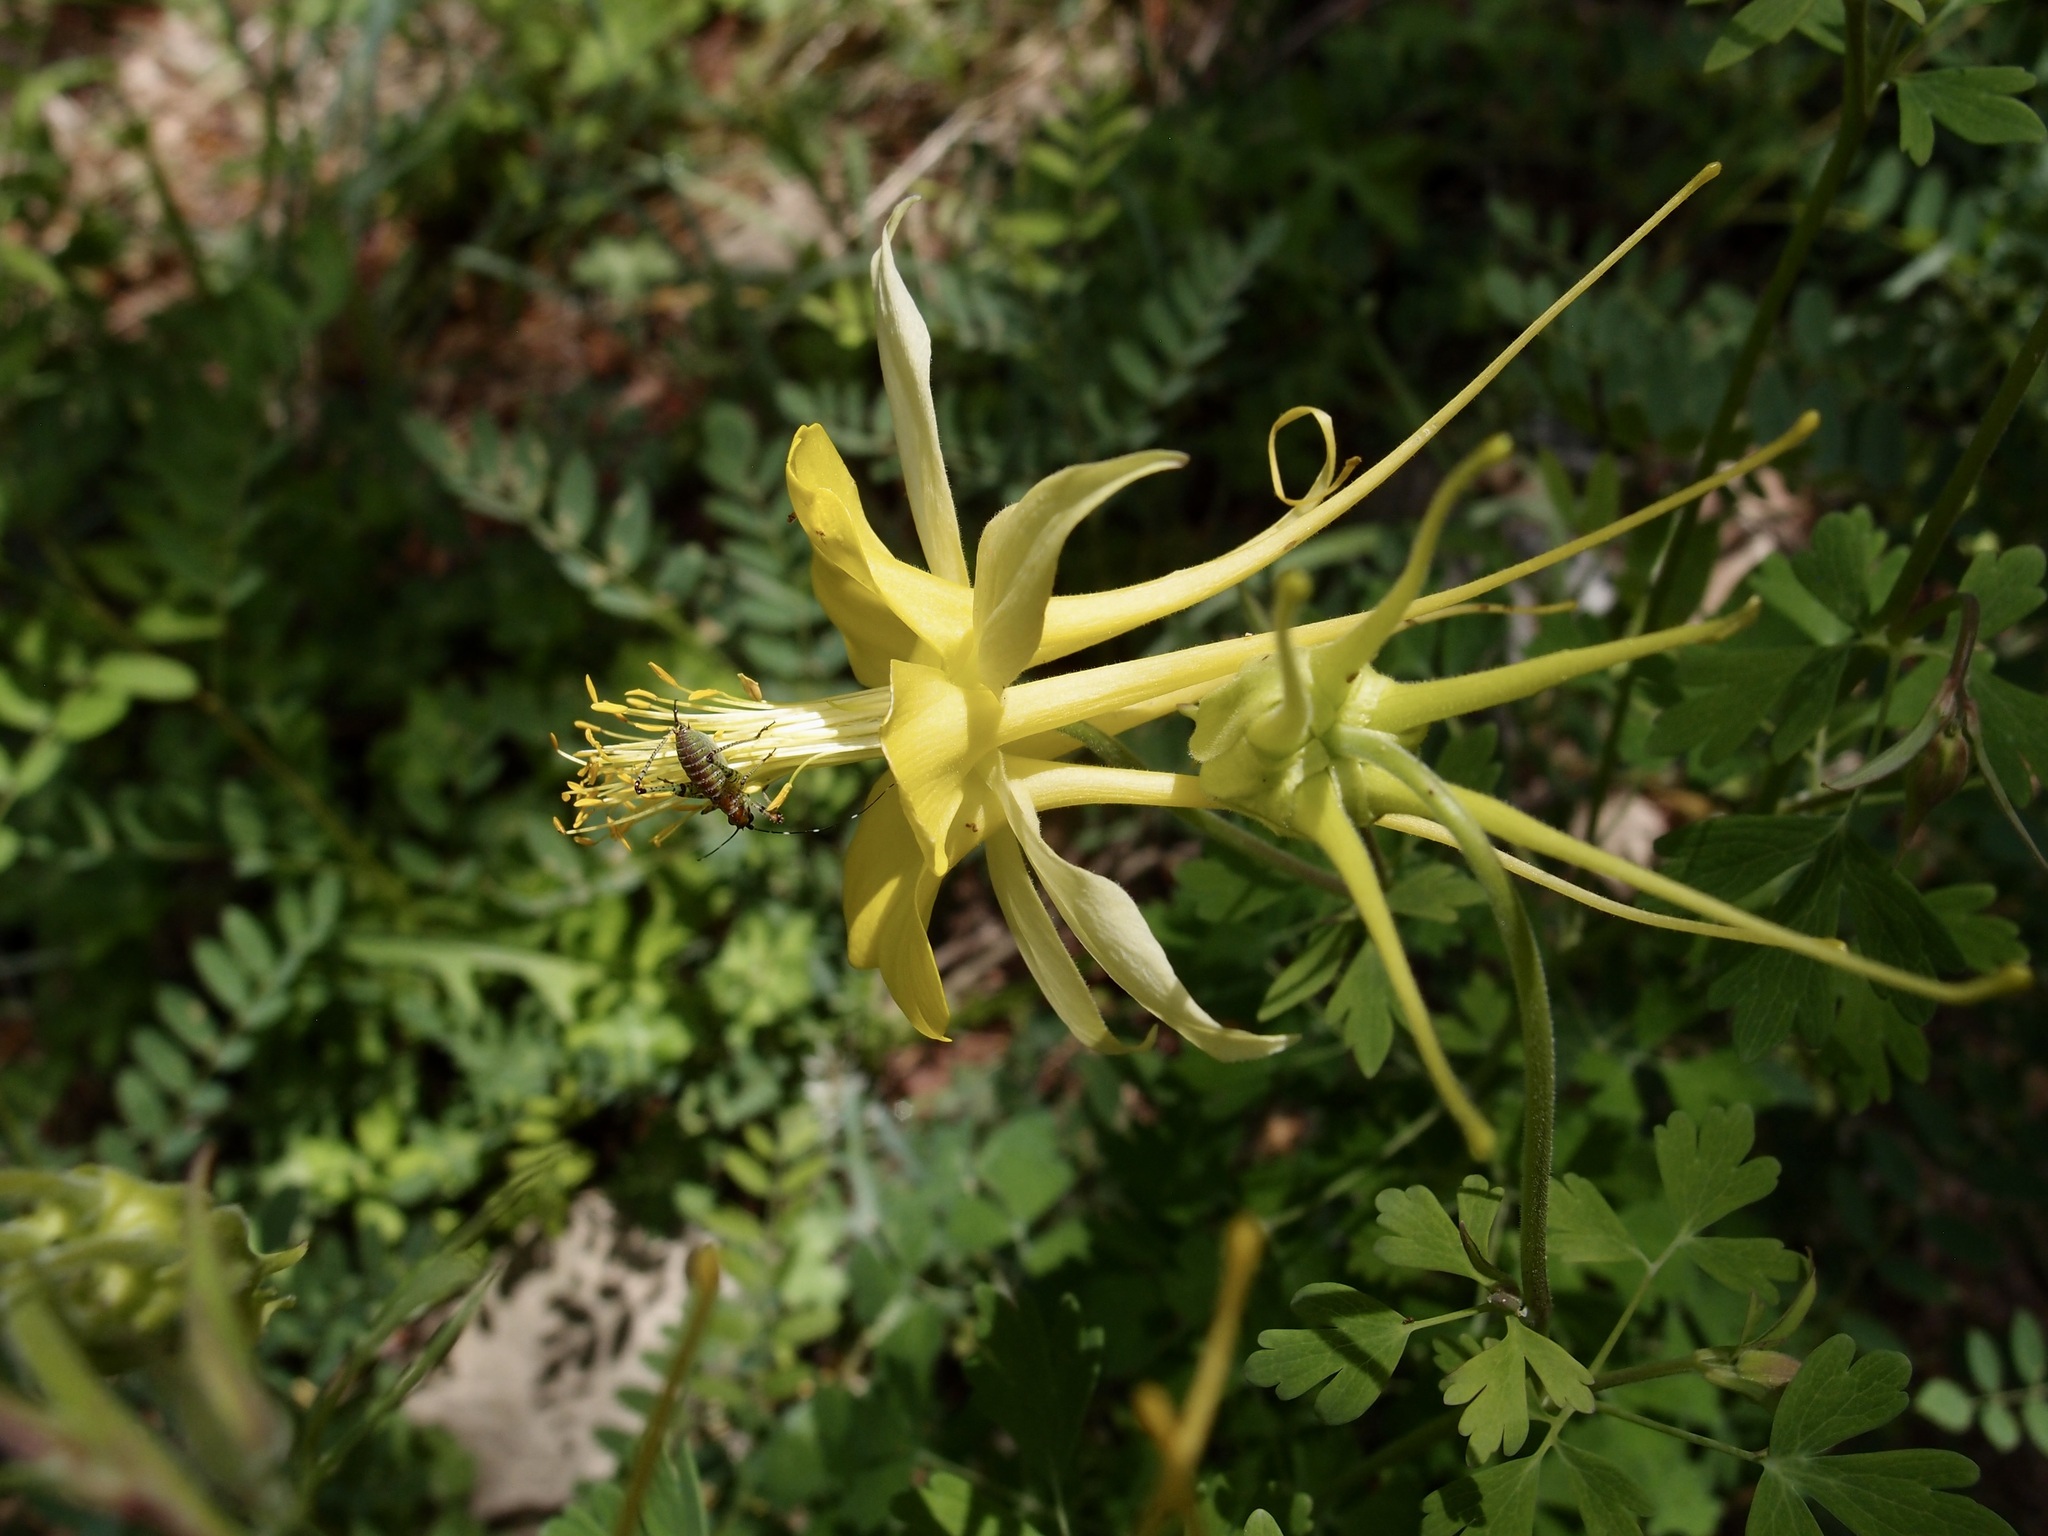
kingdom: Plantae
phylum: Tracheophyta
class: Magnoliopsida
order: Ranunculales
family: Ranunculaceae
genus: Aquilegia
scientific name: Aquilegia chrysantha
